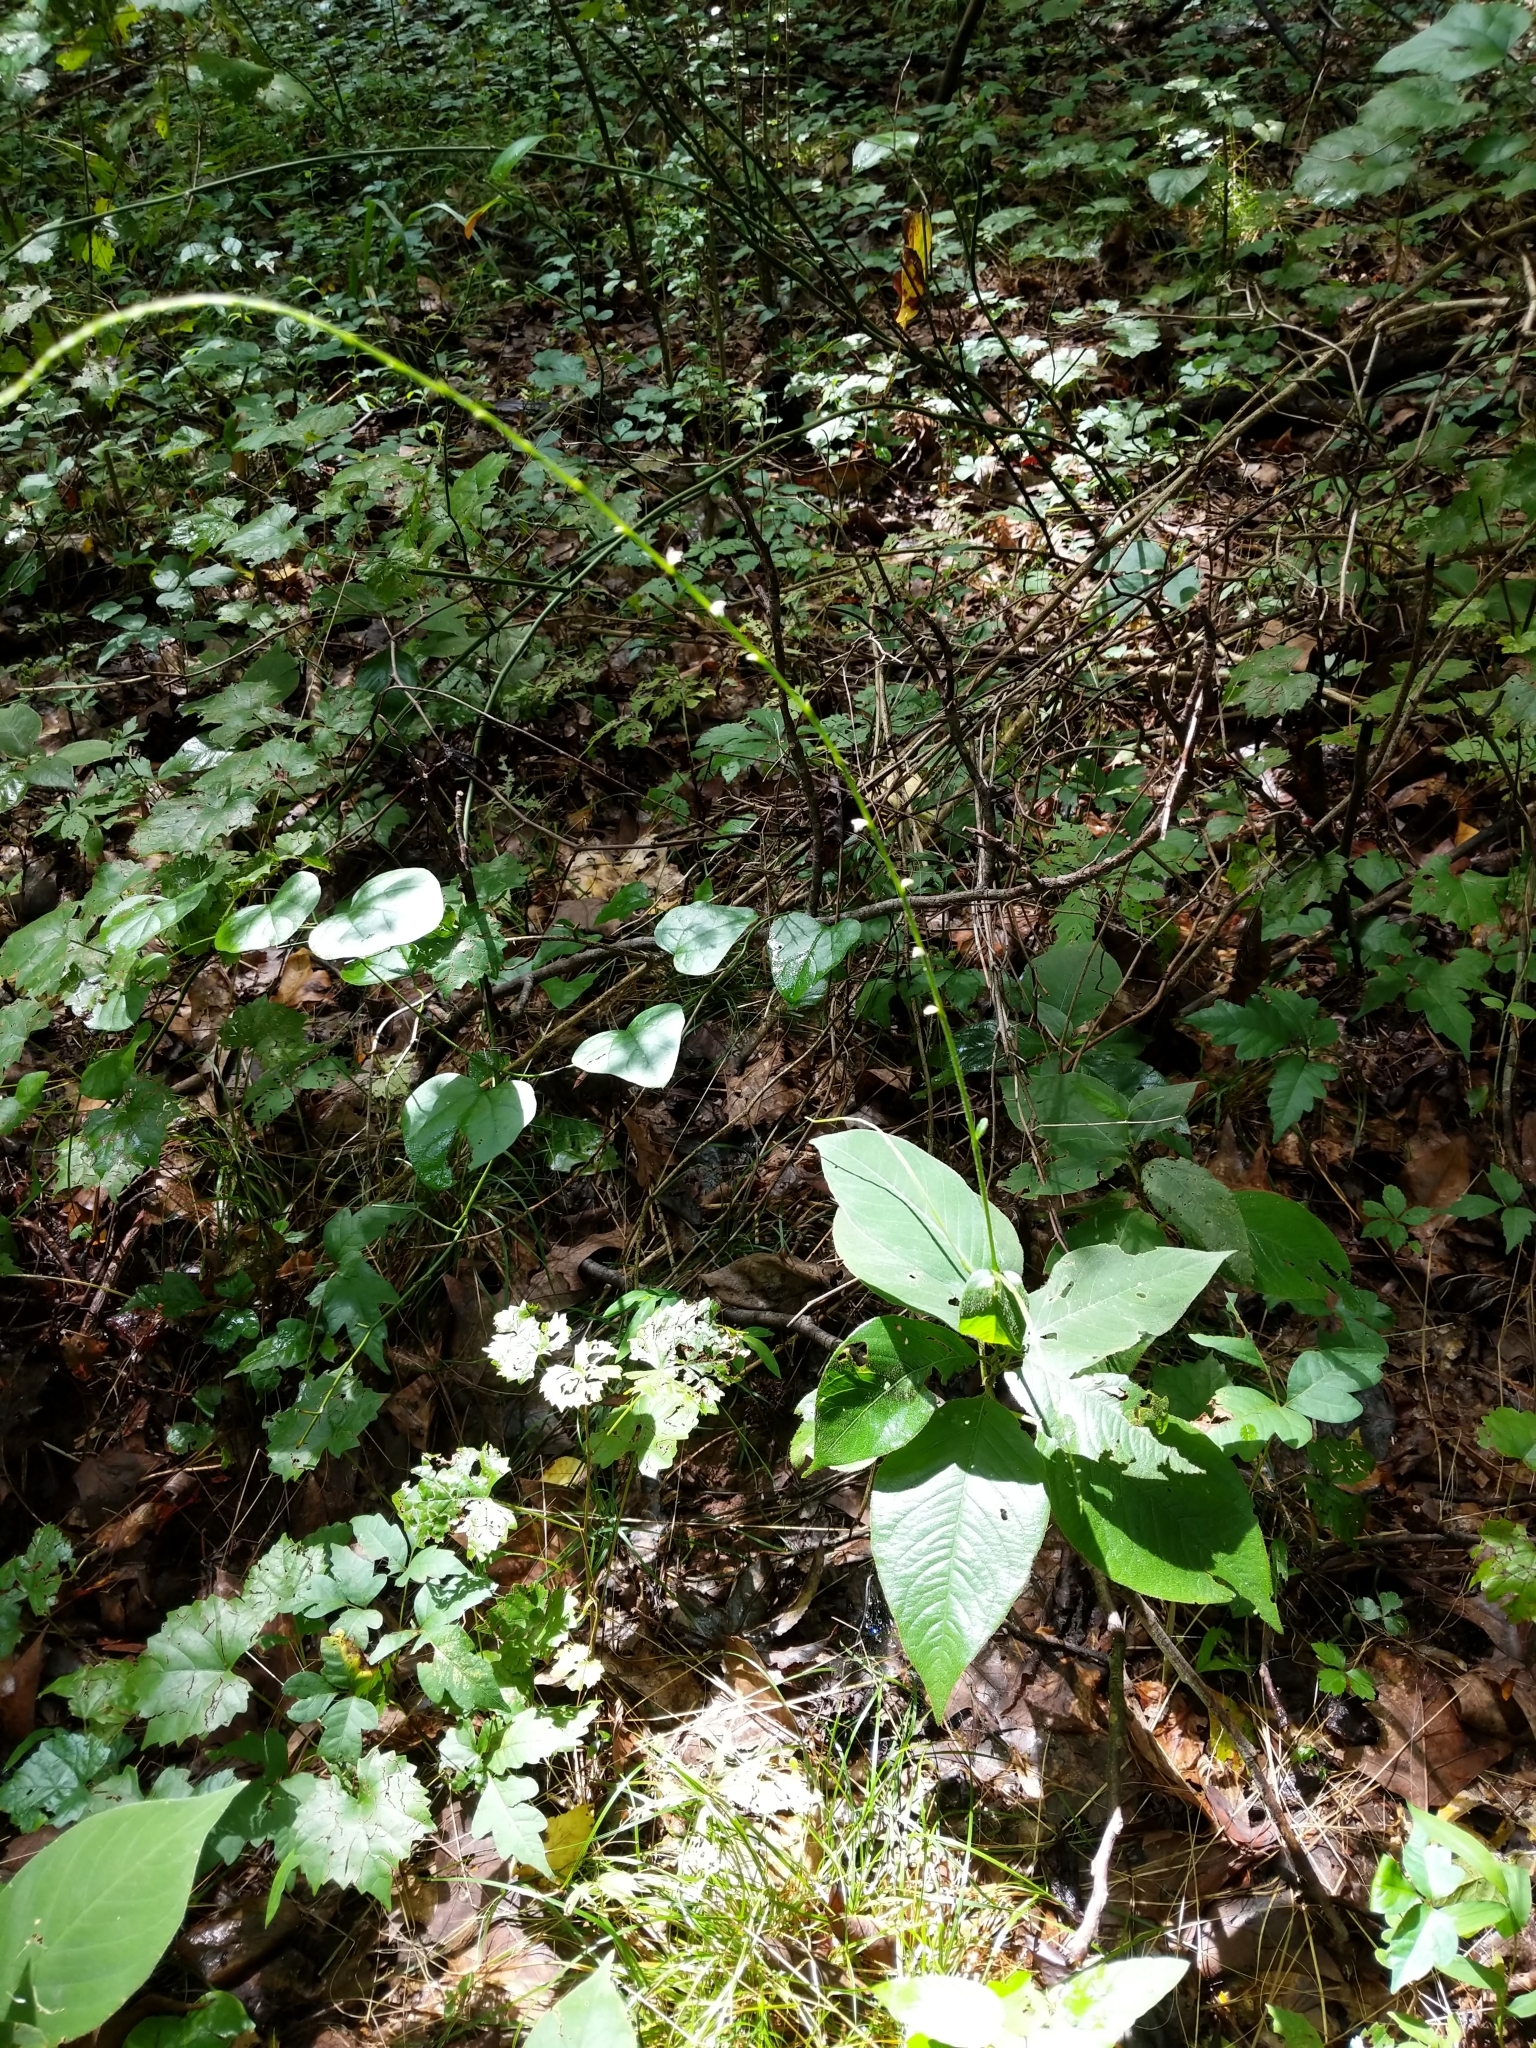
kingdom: Plantae
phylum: Tracheophyta
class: Magnoliopsida
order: Caryophyllales
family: Polygonaceae
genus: Persicaria
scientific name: Persicaria virginiana
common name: Jumpseed
